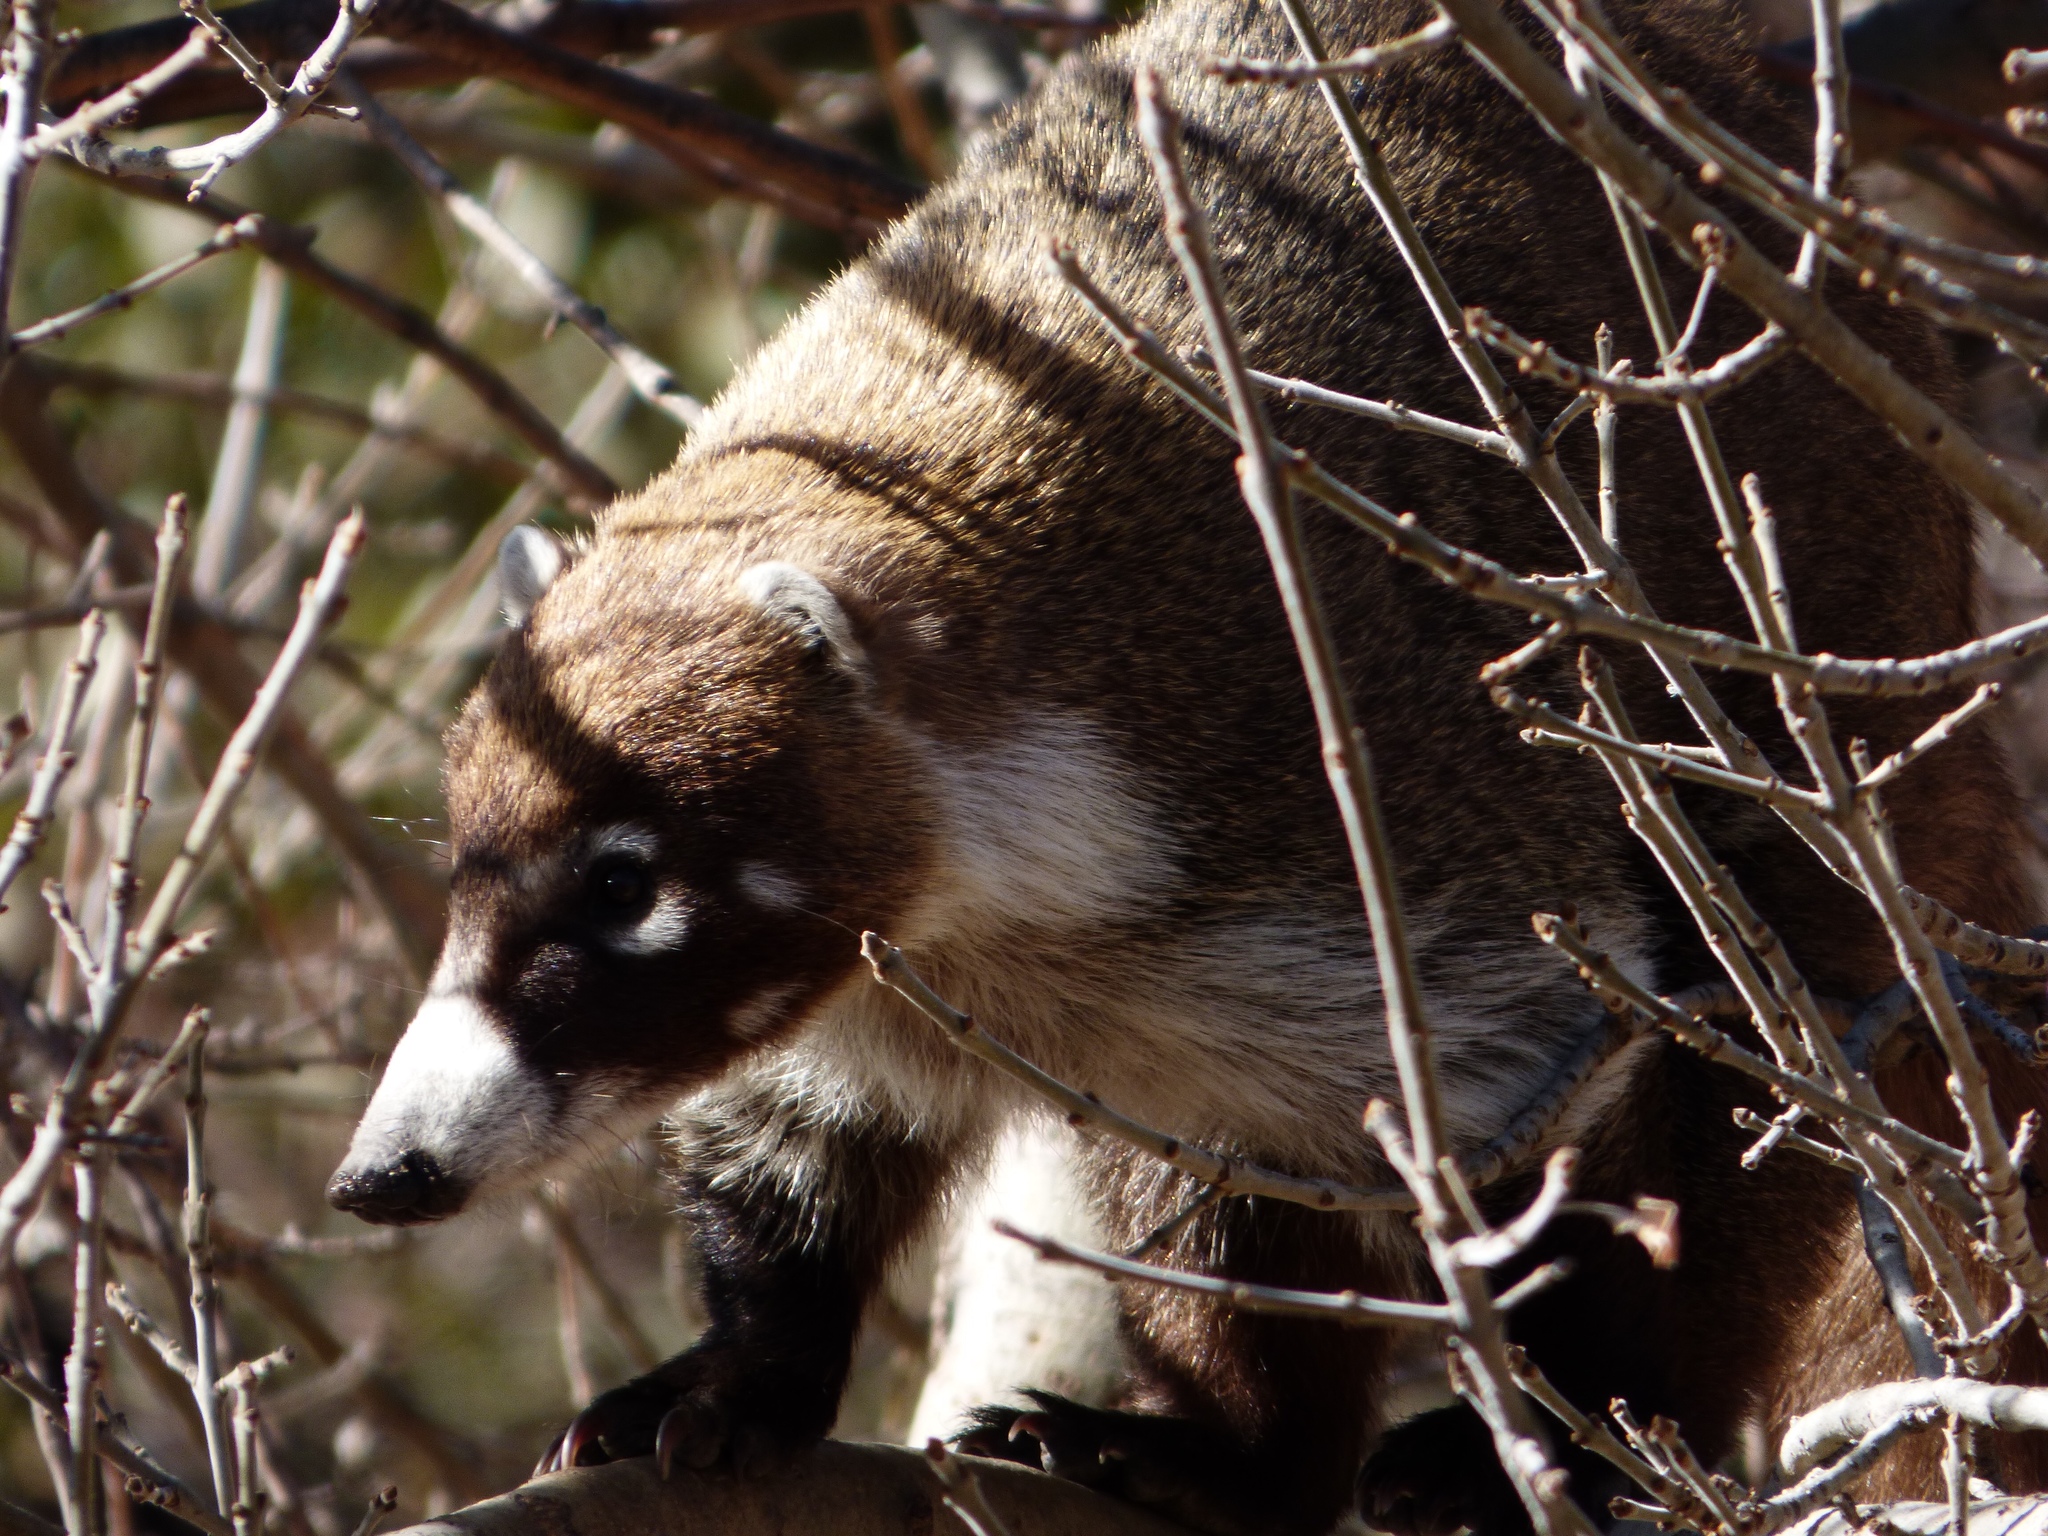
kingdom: Animalia
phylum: Chordata
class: Mammalia
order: Carnivora
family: Procyonidae
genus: Nasua
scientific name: Nasua narica
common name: White-nosed coati
